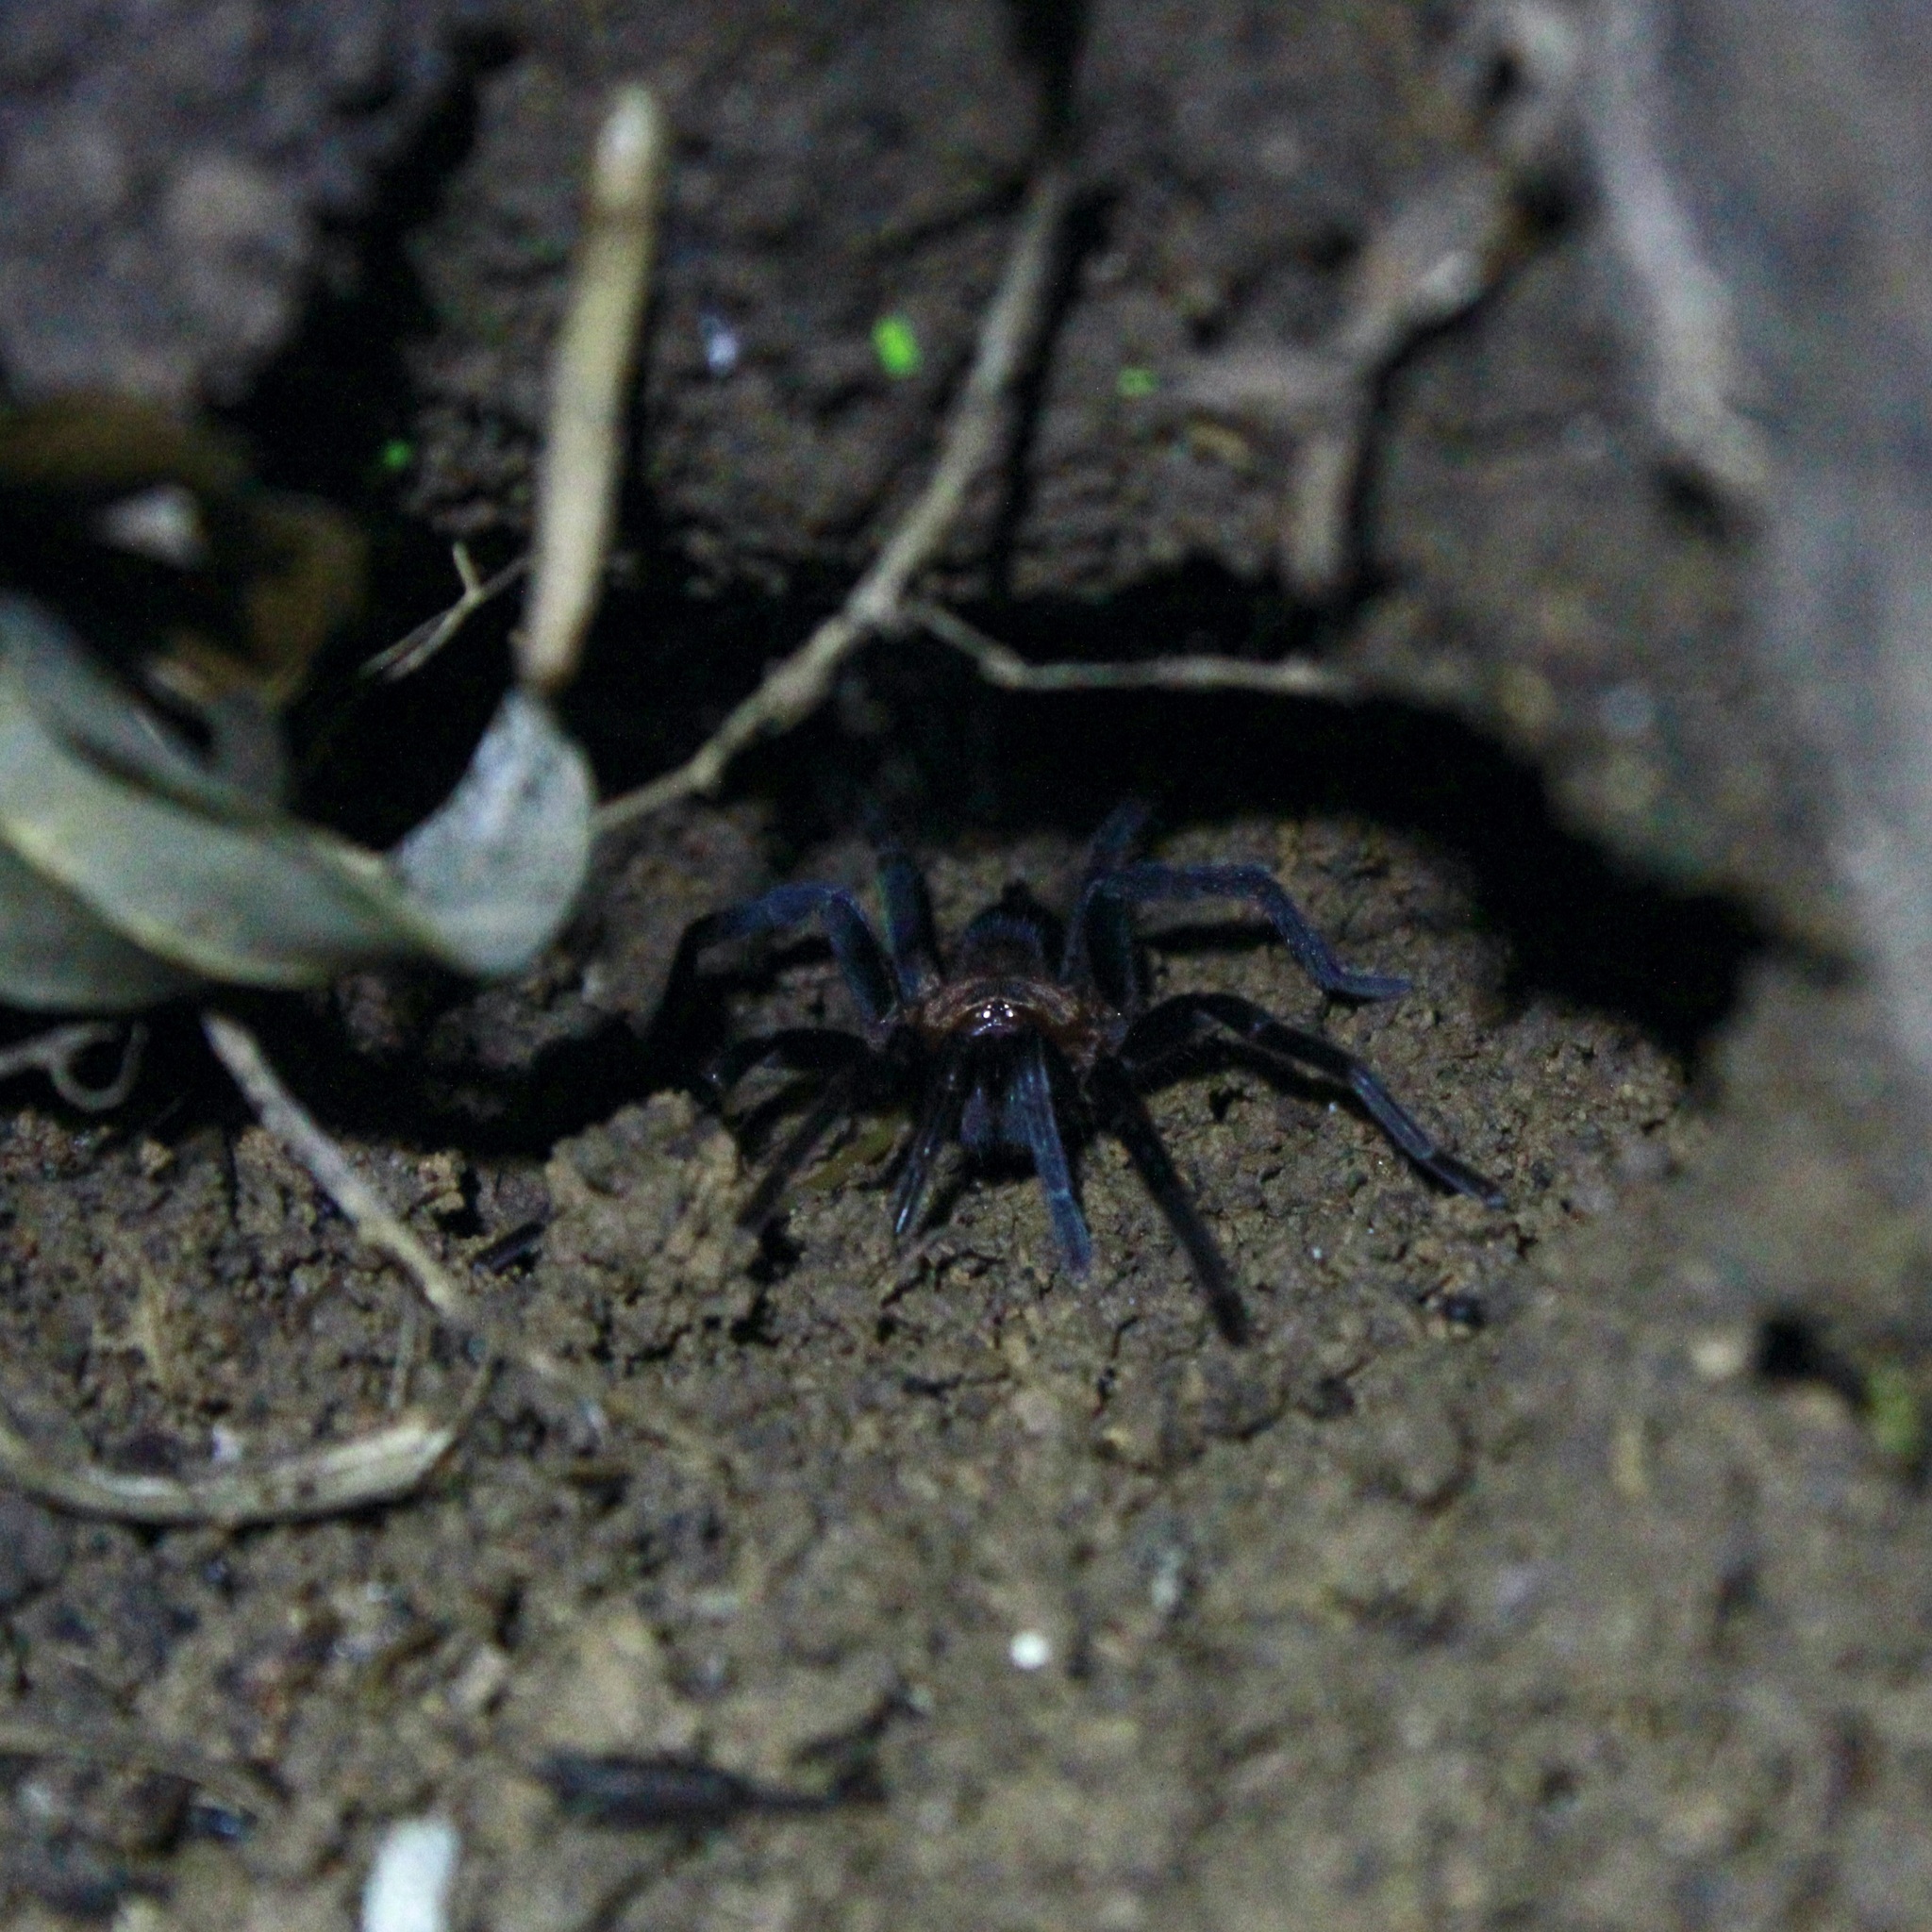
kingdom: Animalia
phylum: Arthropoda
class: Arachnida
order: Araneae
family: Theraphosidae
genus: Holothele
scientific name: Holothele longipes
